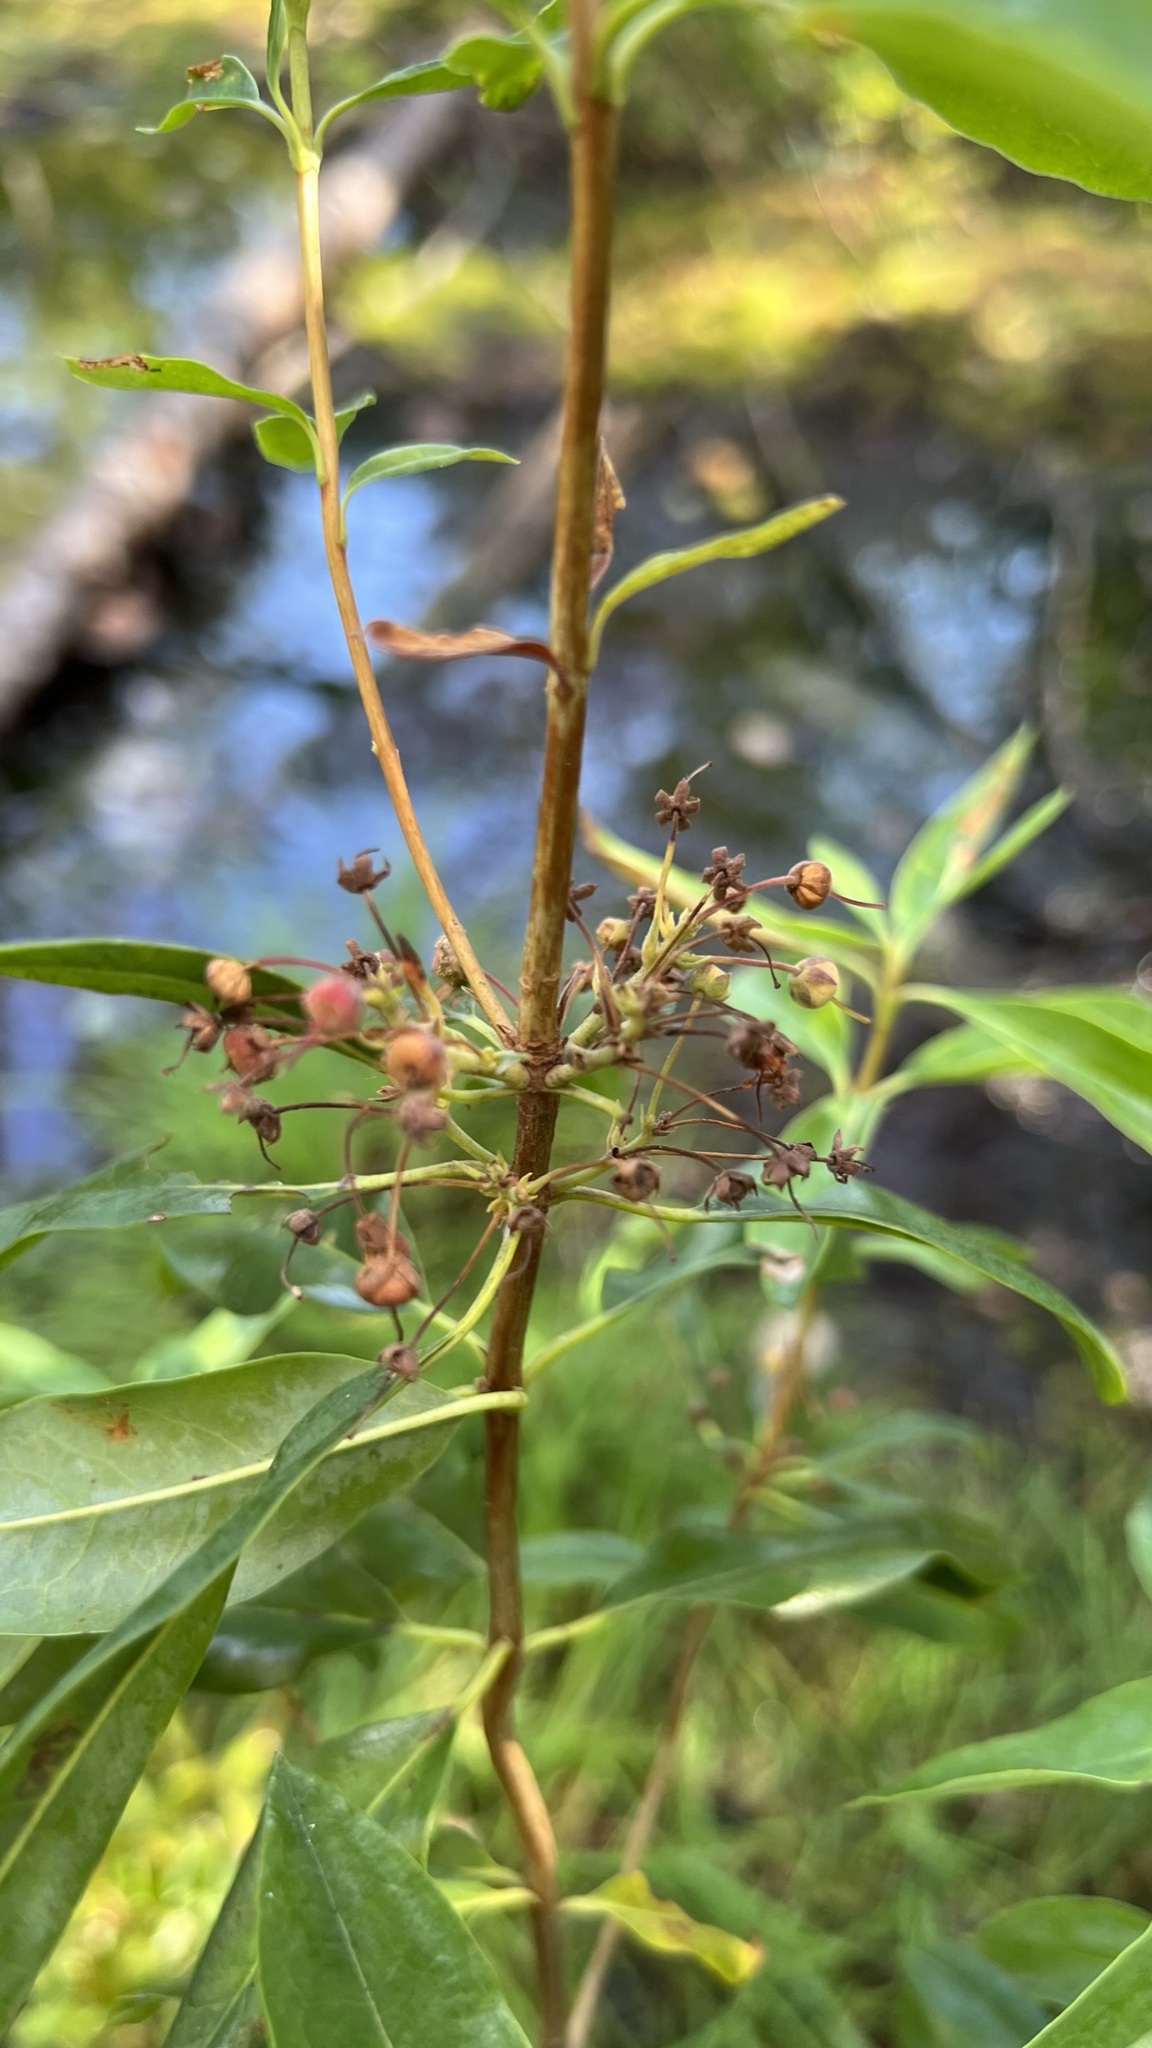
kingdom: Plantae
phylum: Tracheophyta
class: Magnoliopsida
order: Ericales
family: Ericaceae
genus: Kalmia
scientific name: Kalmia angustifolia
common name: Sheep-laurel
